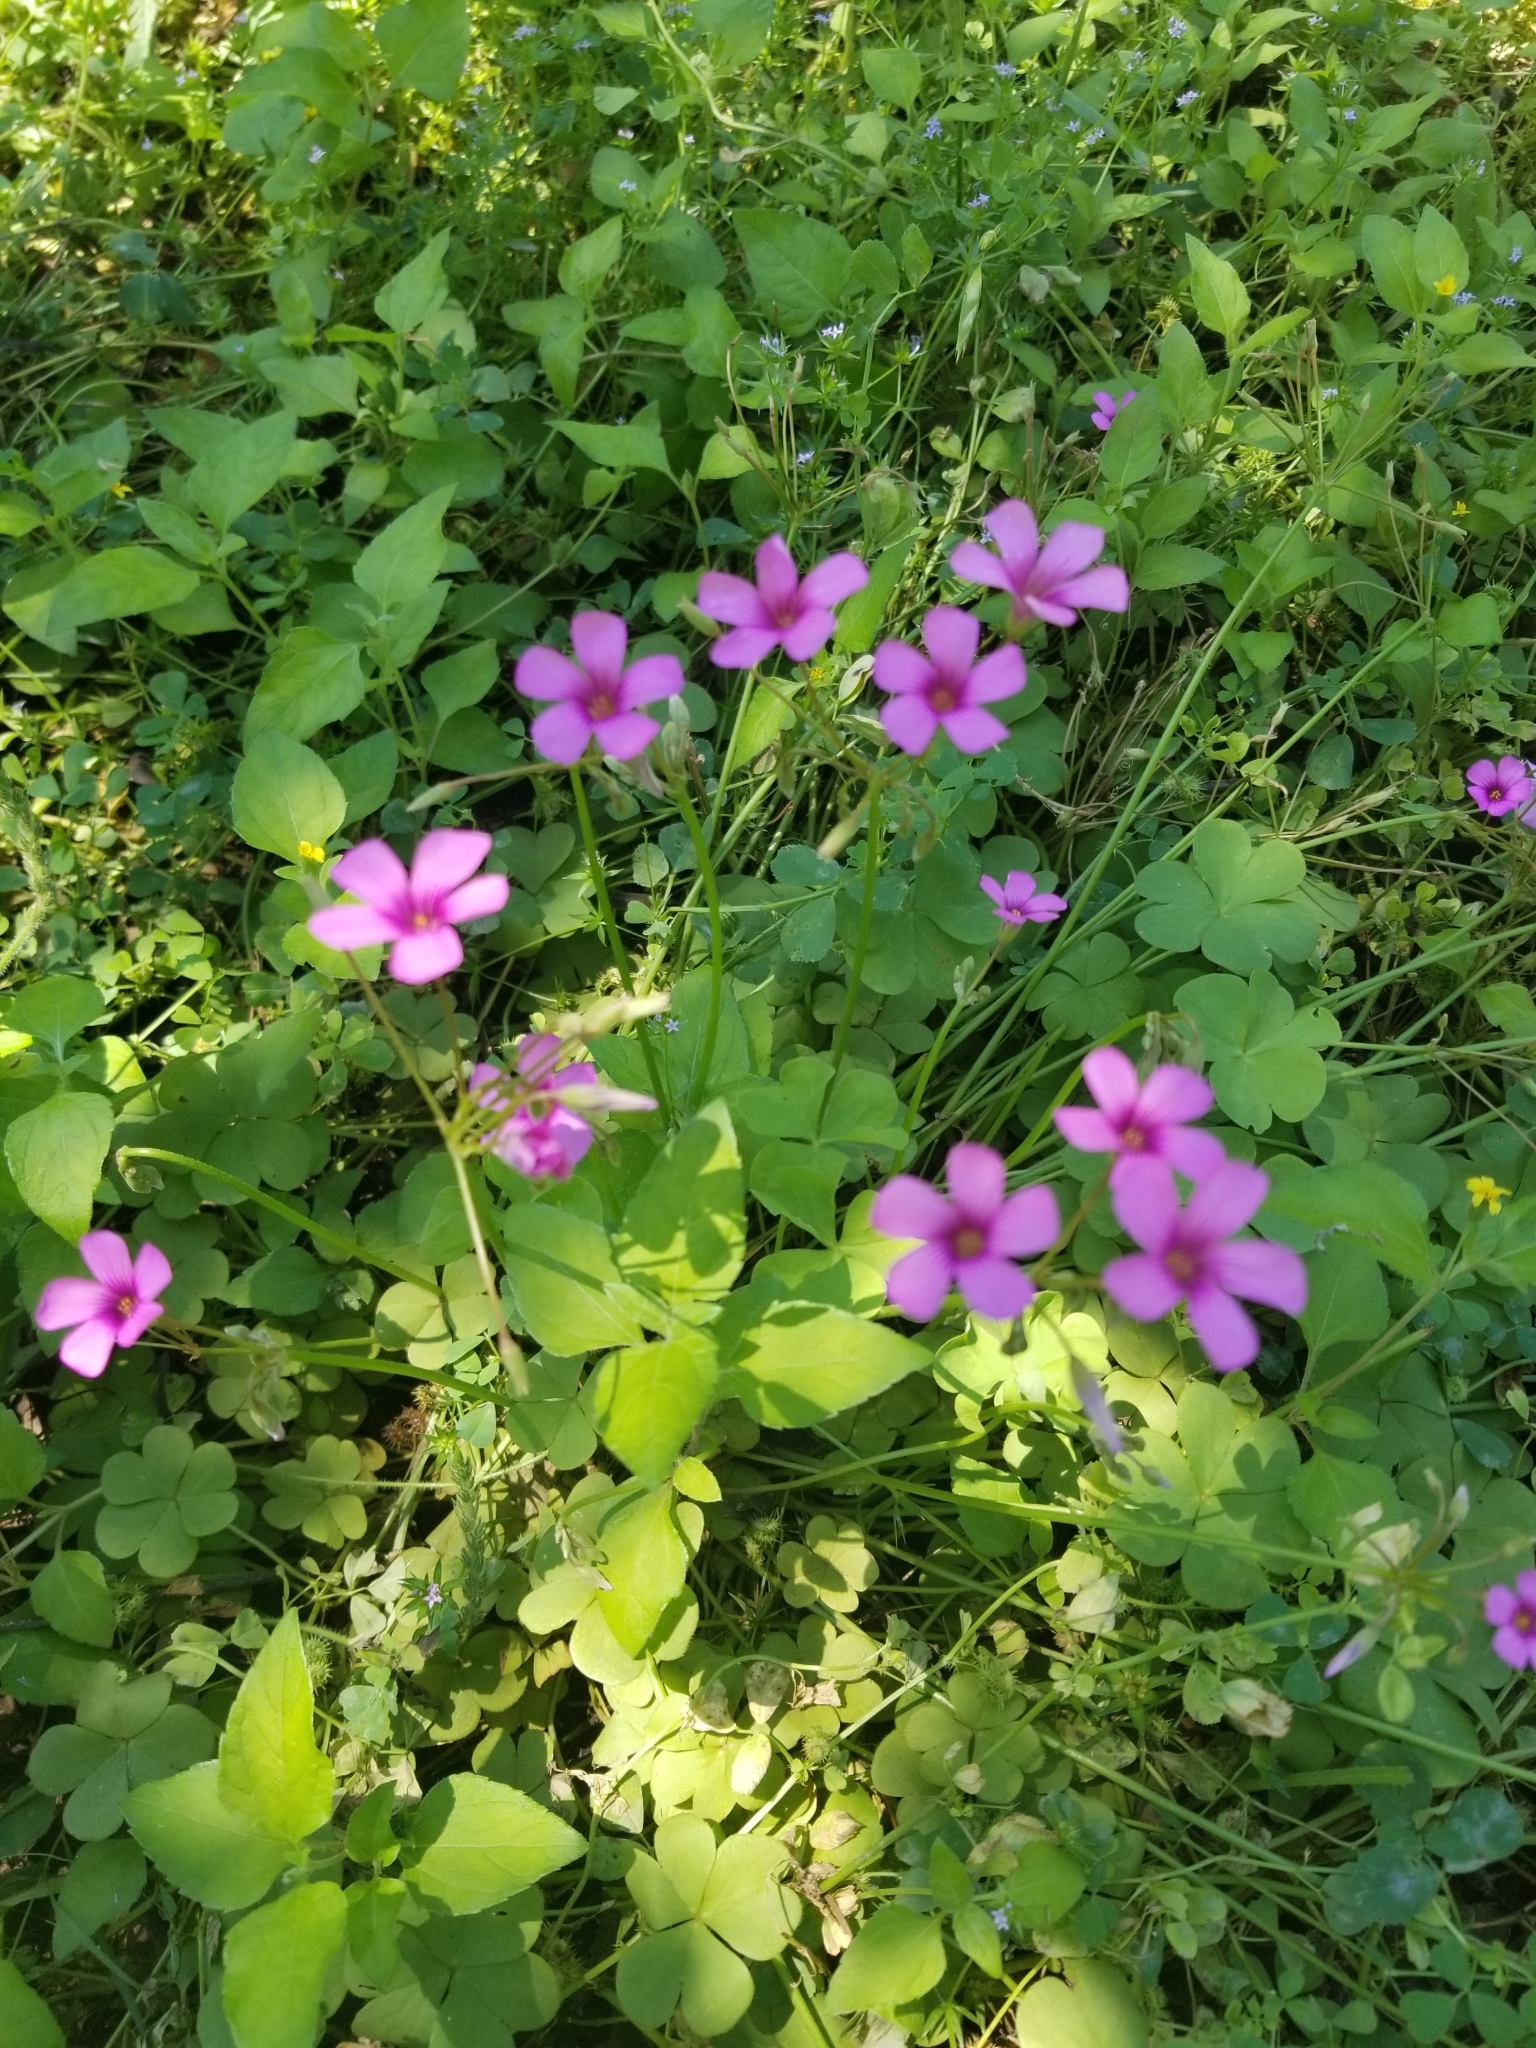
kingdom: Plantae
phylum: Tracheophyta
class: Magnoliopsida
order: Oxalidales
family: Oxalidaceae
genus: Oxalis
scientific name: Oxalis articulata
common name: Pink-sorrel
